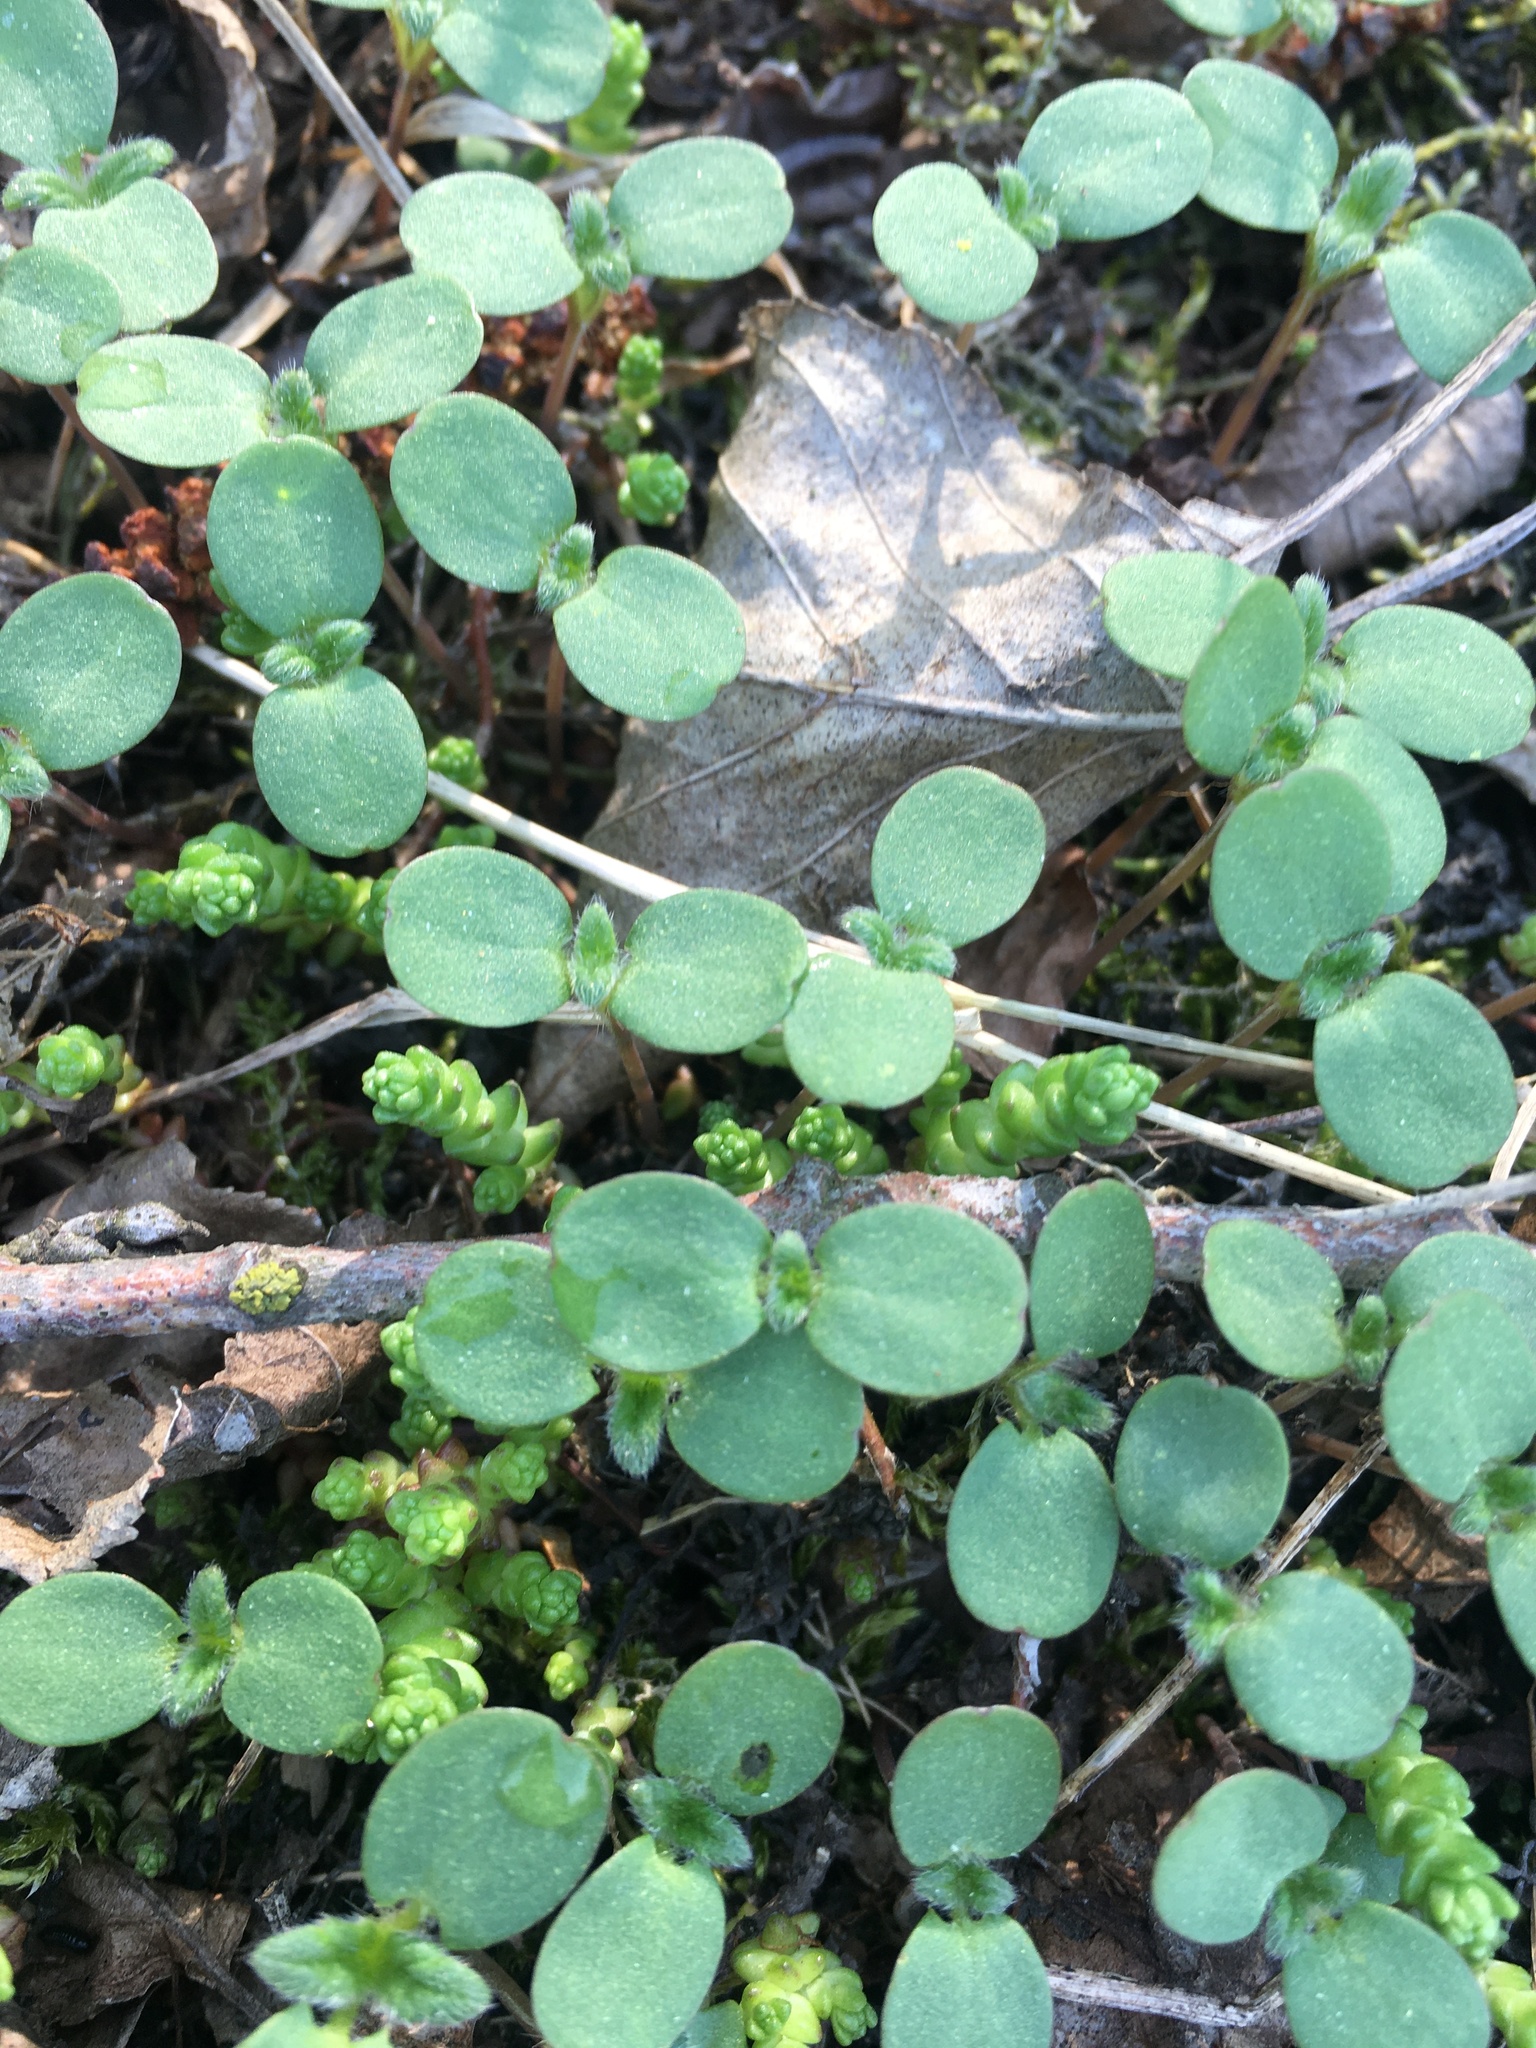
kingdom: Plantae
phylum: Tracheophyta
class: Magnoliopsida
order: Lamiales
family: Lamiaceae
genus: Galeopsis
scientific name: Galeopsis
